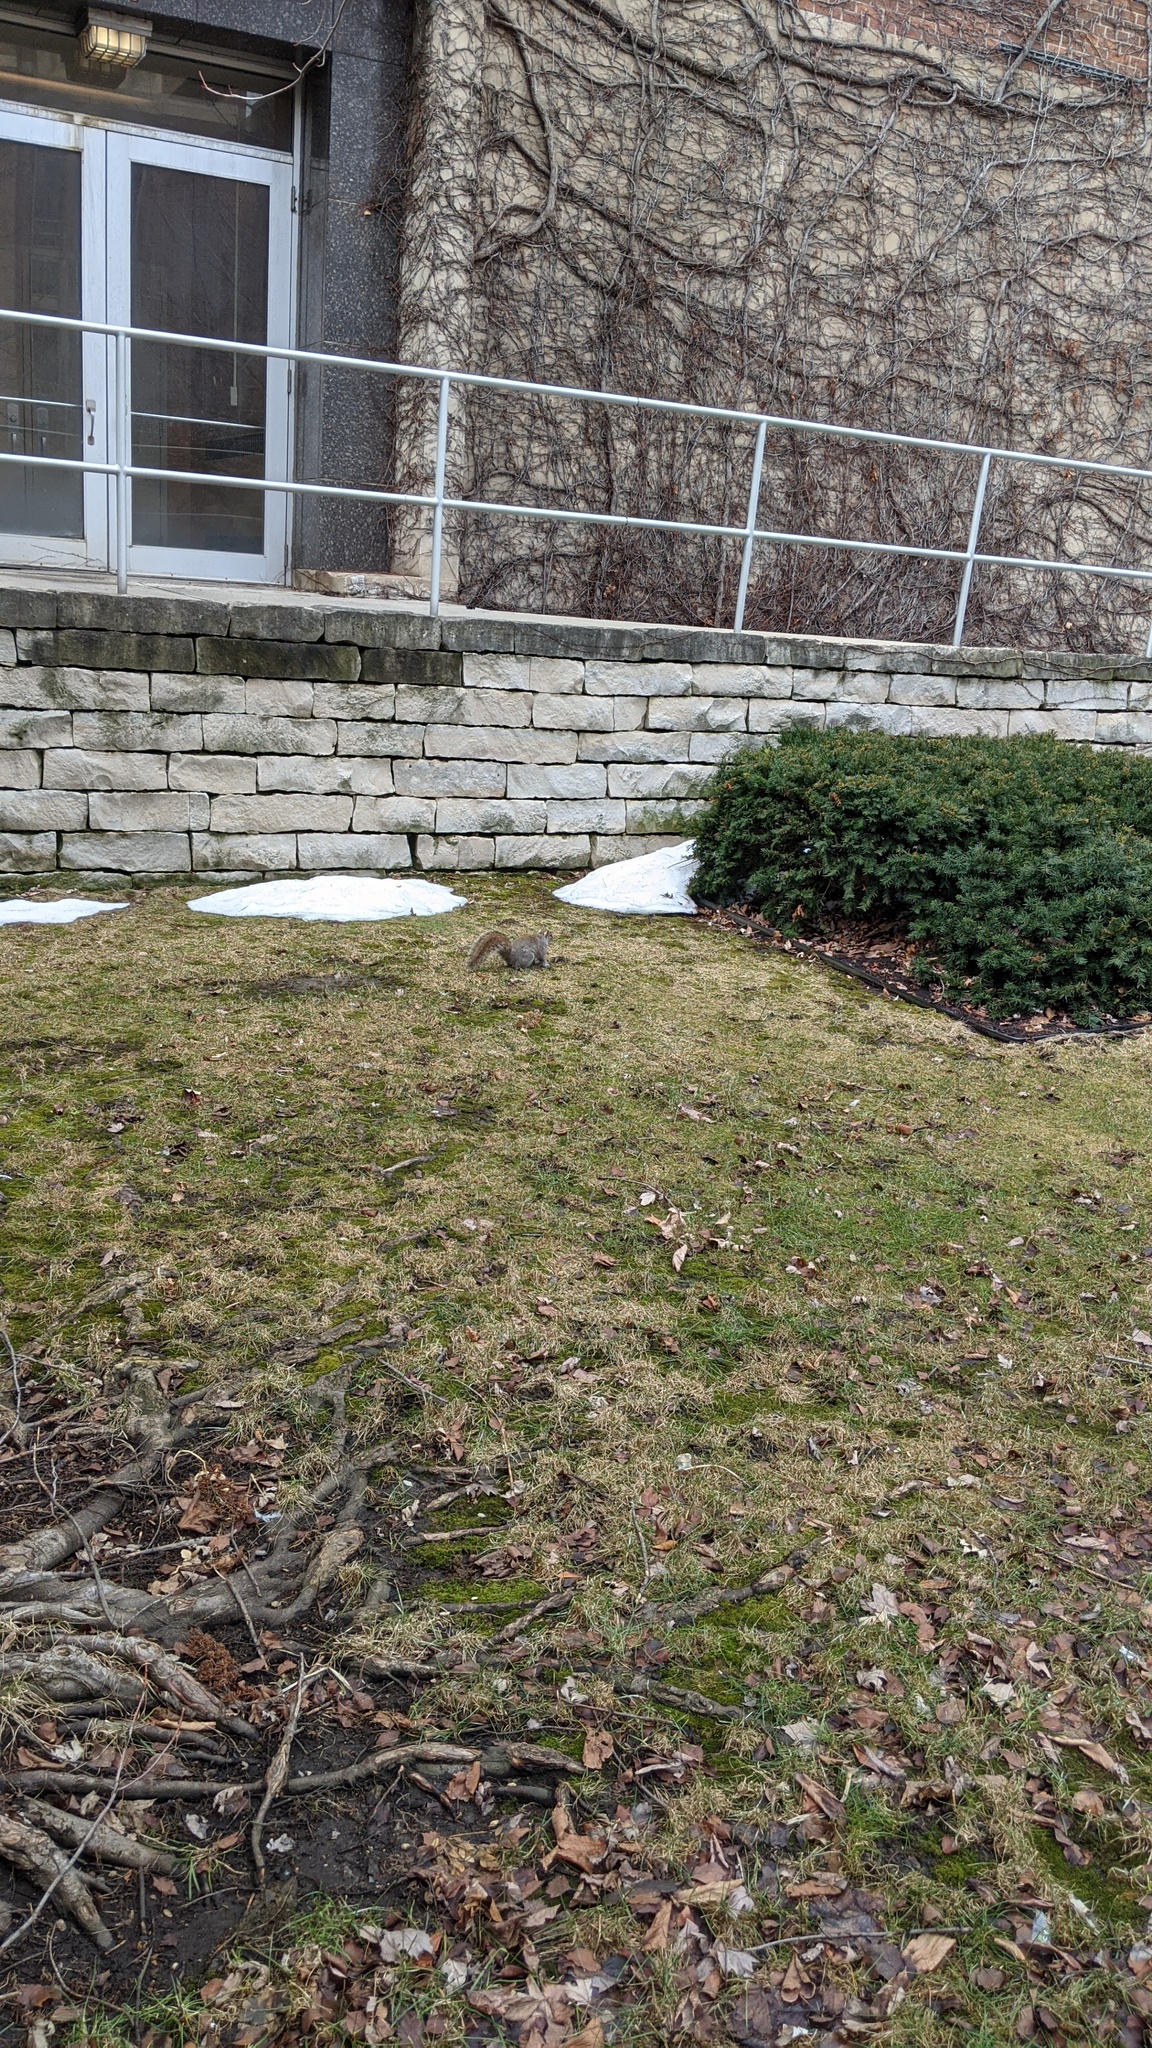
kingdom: Animalia
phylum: Chordata
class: Mammalia
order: Rodentia
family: Sciuridae
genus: Sciurus
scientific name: Sciurus carolinensis
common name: Eastern gray squirrel
